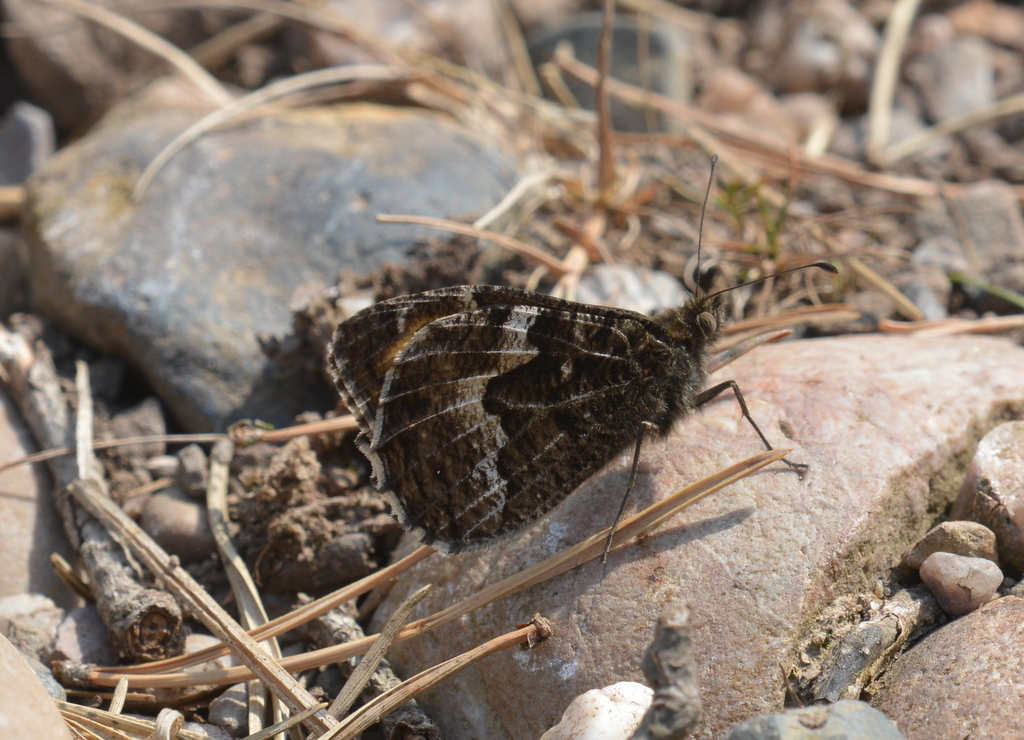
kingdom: Animalia
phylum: Arthropoda
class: Insecta
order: Lepidoptera
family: Nymphalidae
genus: Hipparchia
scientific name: Hipparchia semele
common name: Grayling
